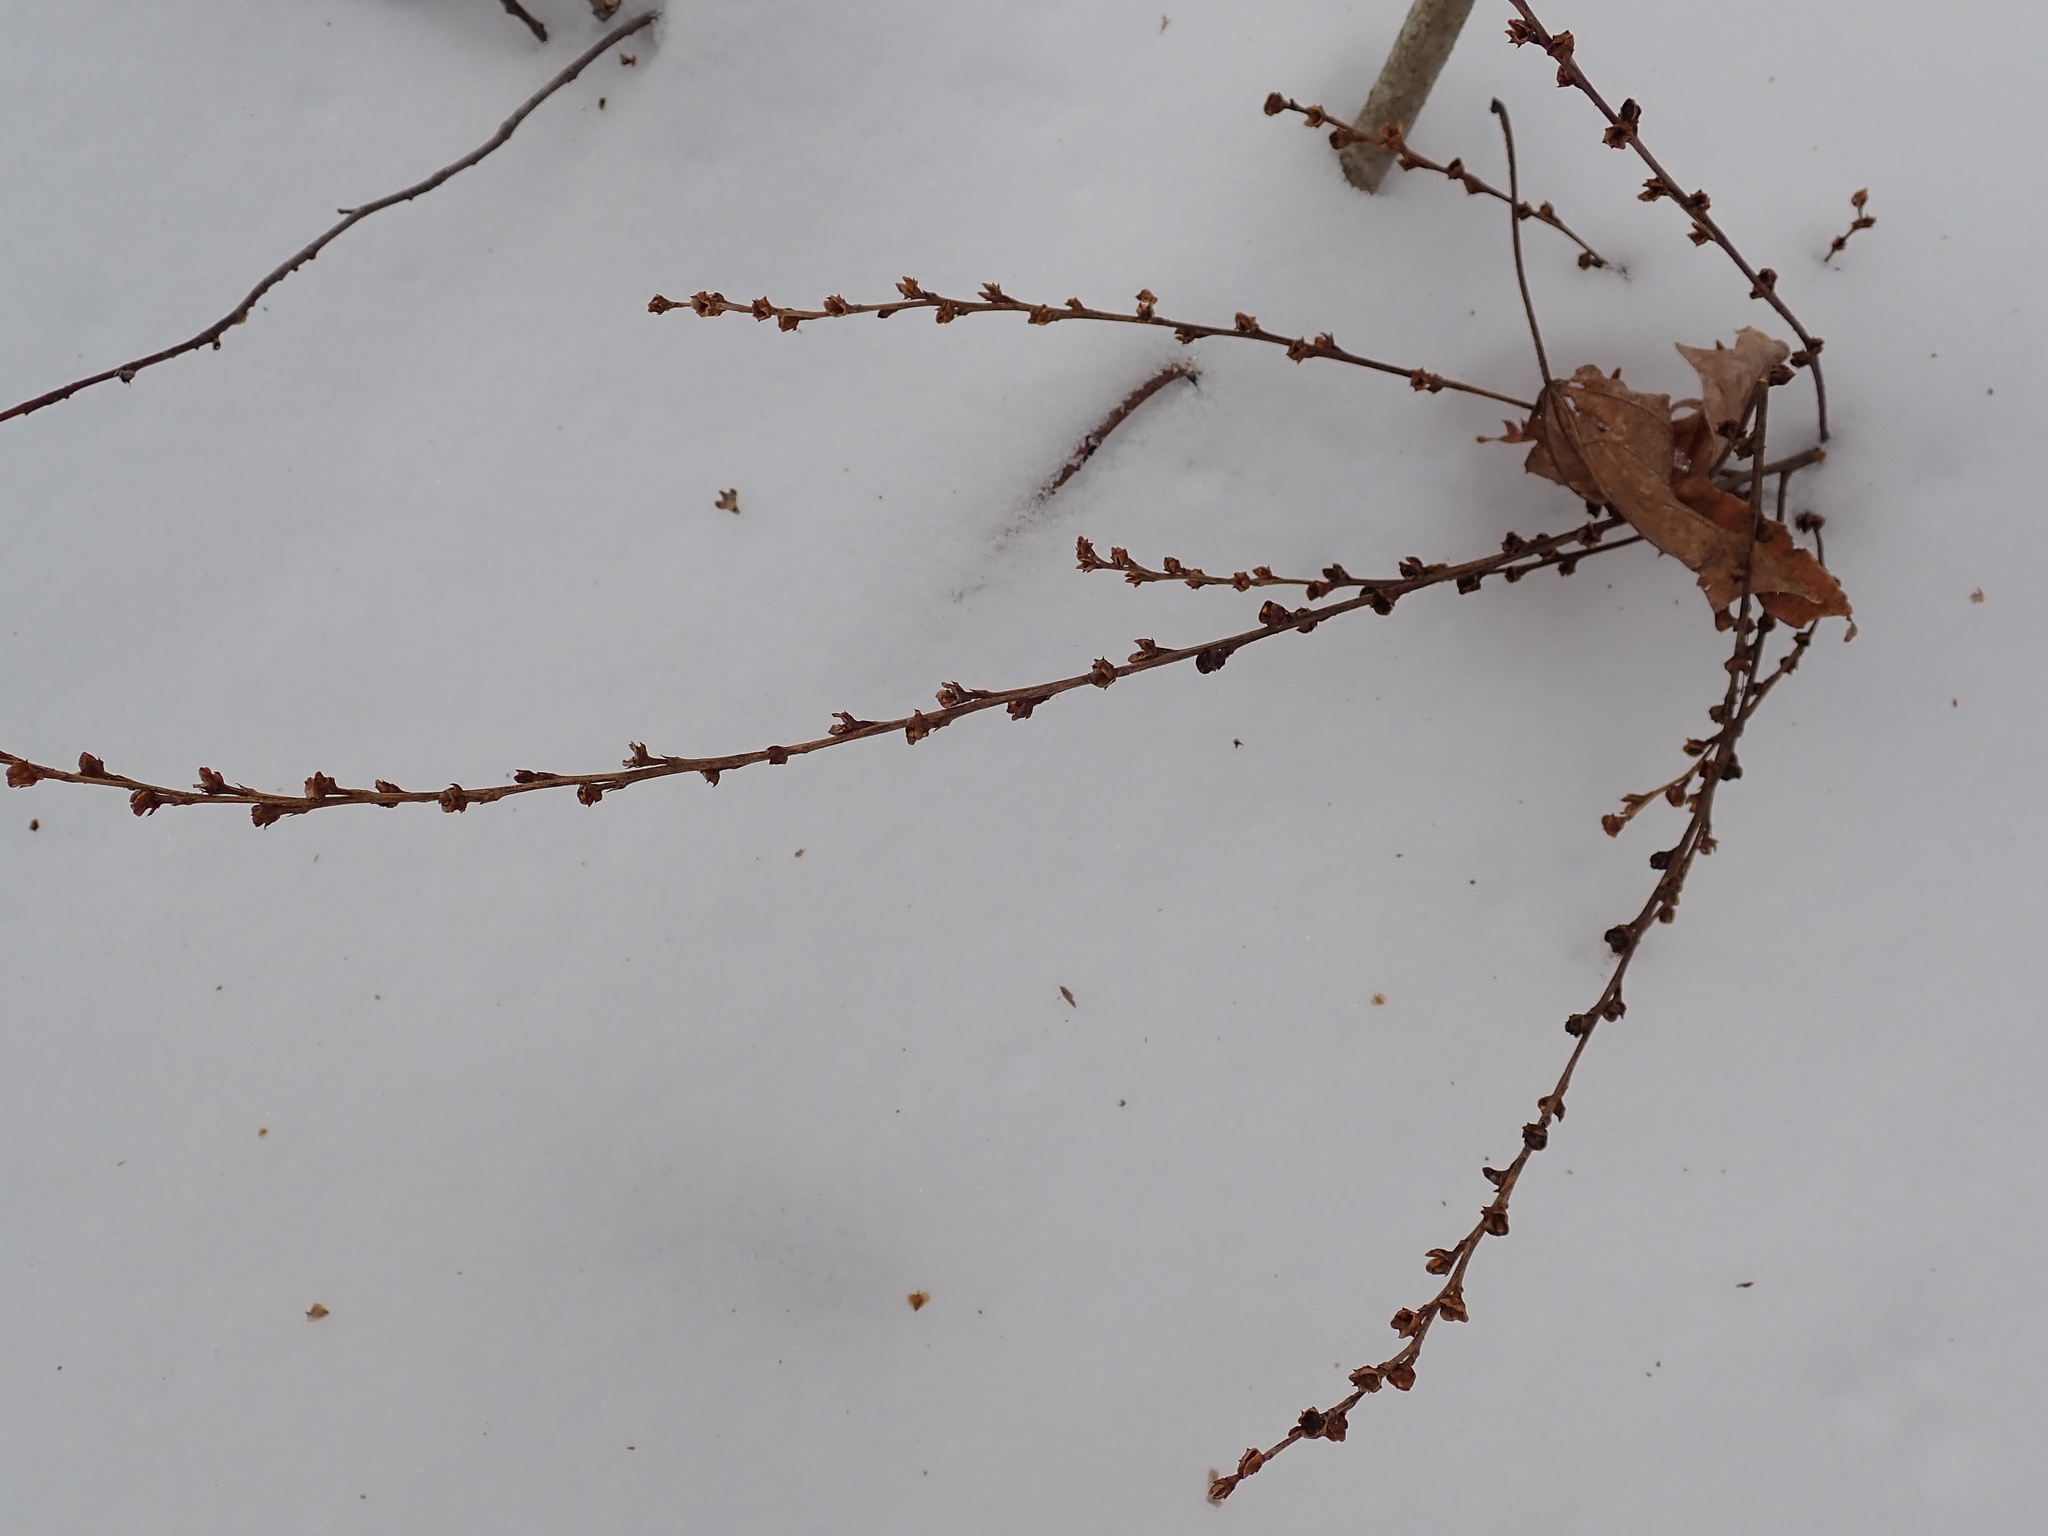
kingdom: Plantae
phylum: Tracheophyta
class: Magnoliopsida
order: Lamiales
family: Orobanchaceae
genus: Epifagus
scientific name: Epifagus virginiana
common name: Beechdrops
